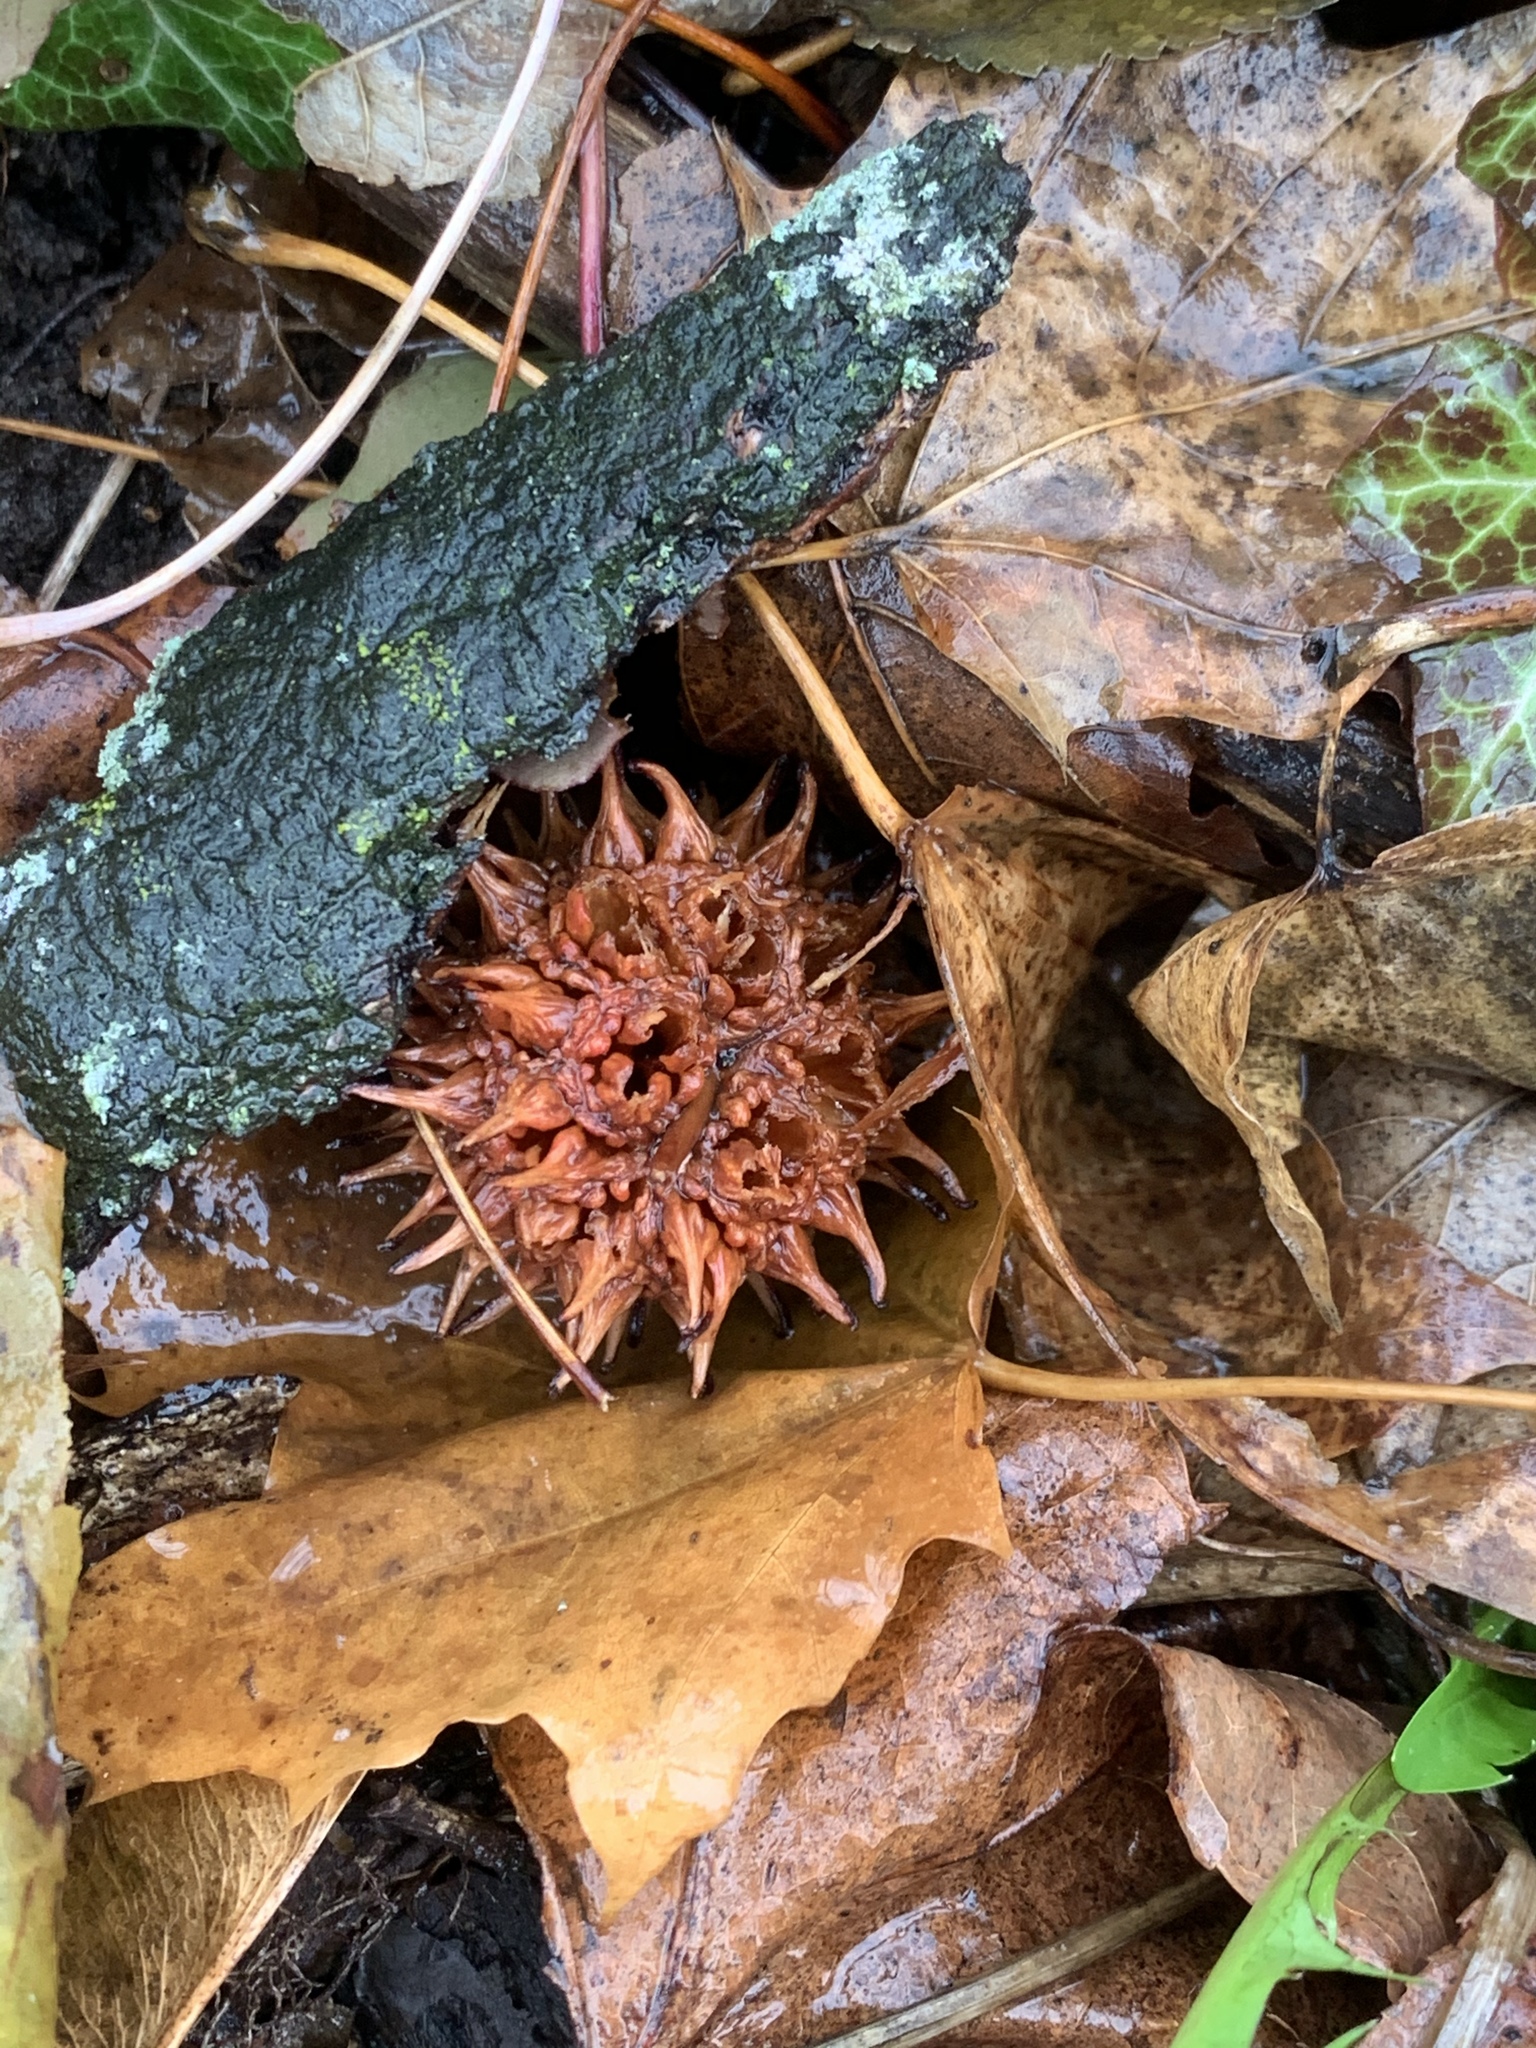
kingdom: Plantae
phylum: Tracheophyta
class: Magnoliopsida
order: Saxifragales
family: Altingiaceae
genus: Liquidambar
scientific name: Liquidambar styraciflua
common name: Sweet gum
